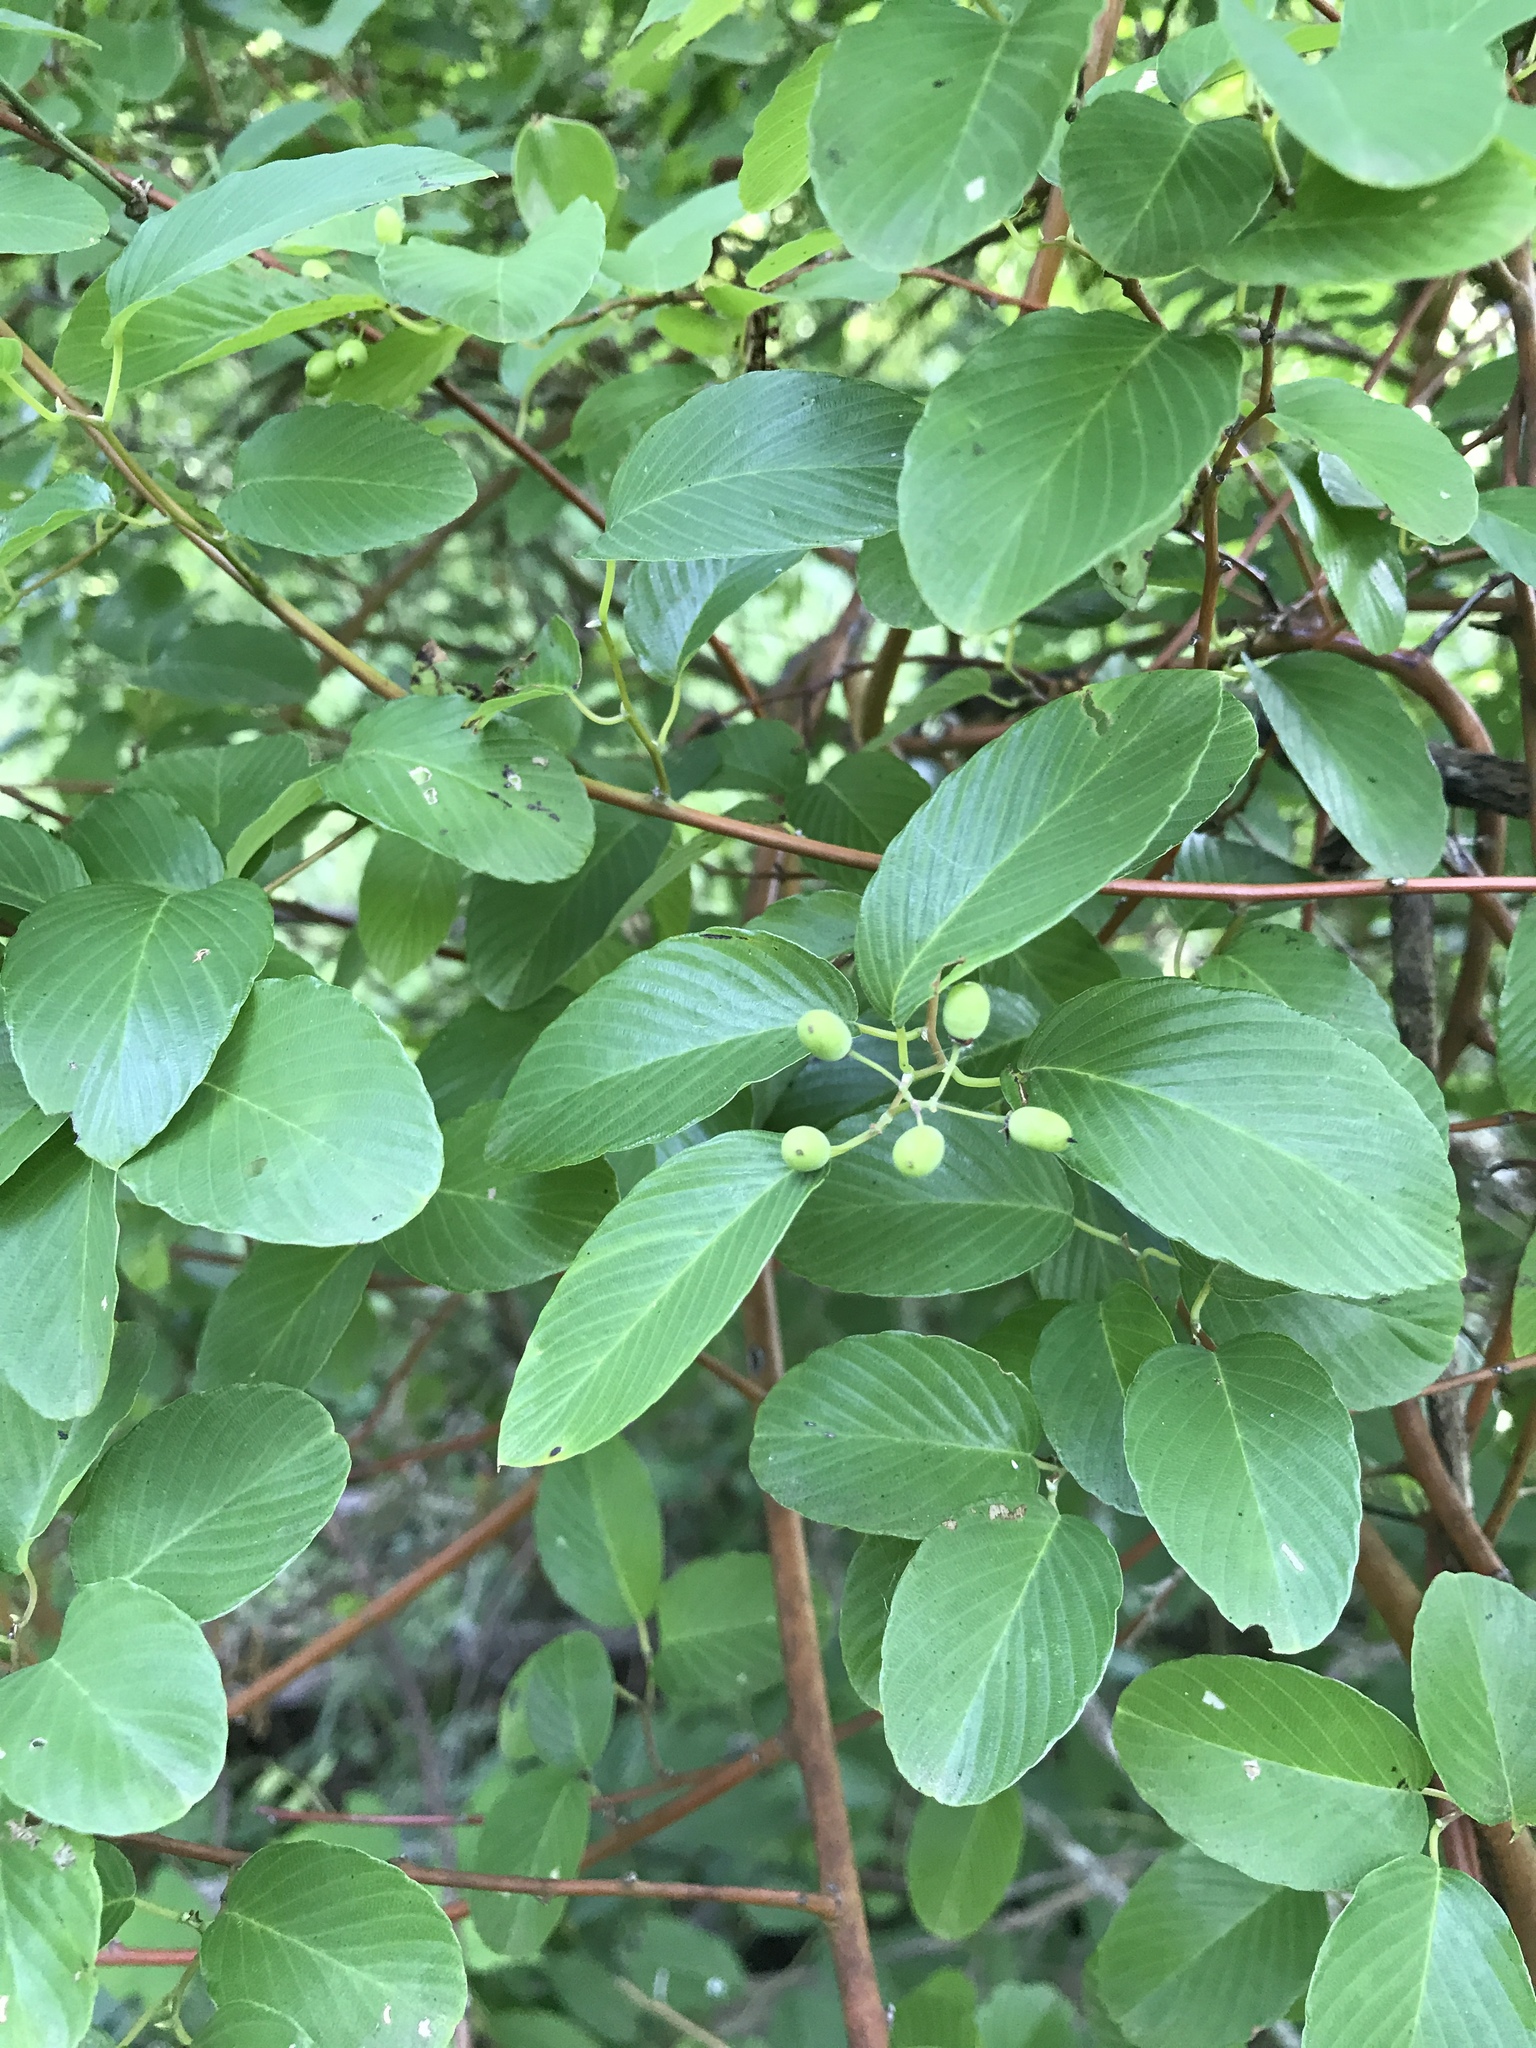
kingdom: Plantae
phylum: Tracheophyta
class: Magnoliopsida
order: Rosales
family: Rhamnaceae
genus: Berchemia
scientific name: Berchemia scandens
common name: Supplejack
